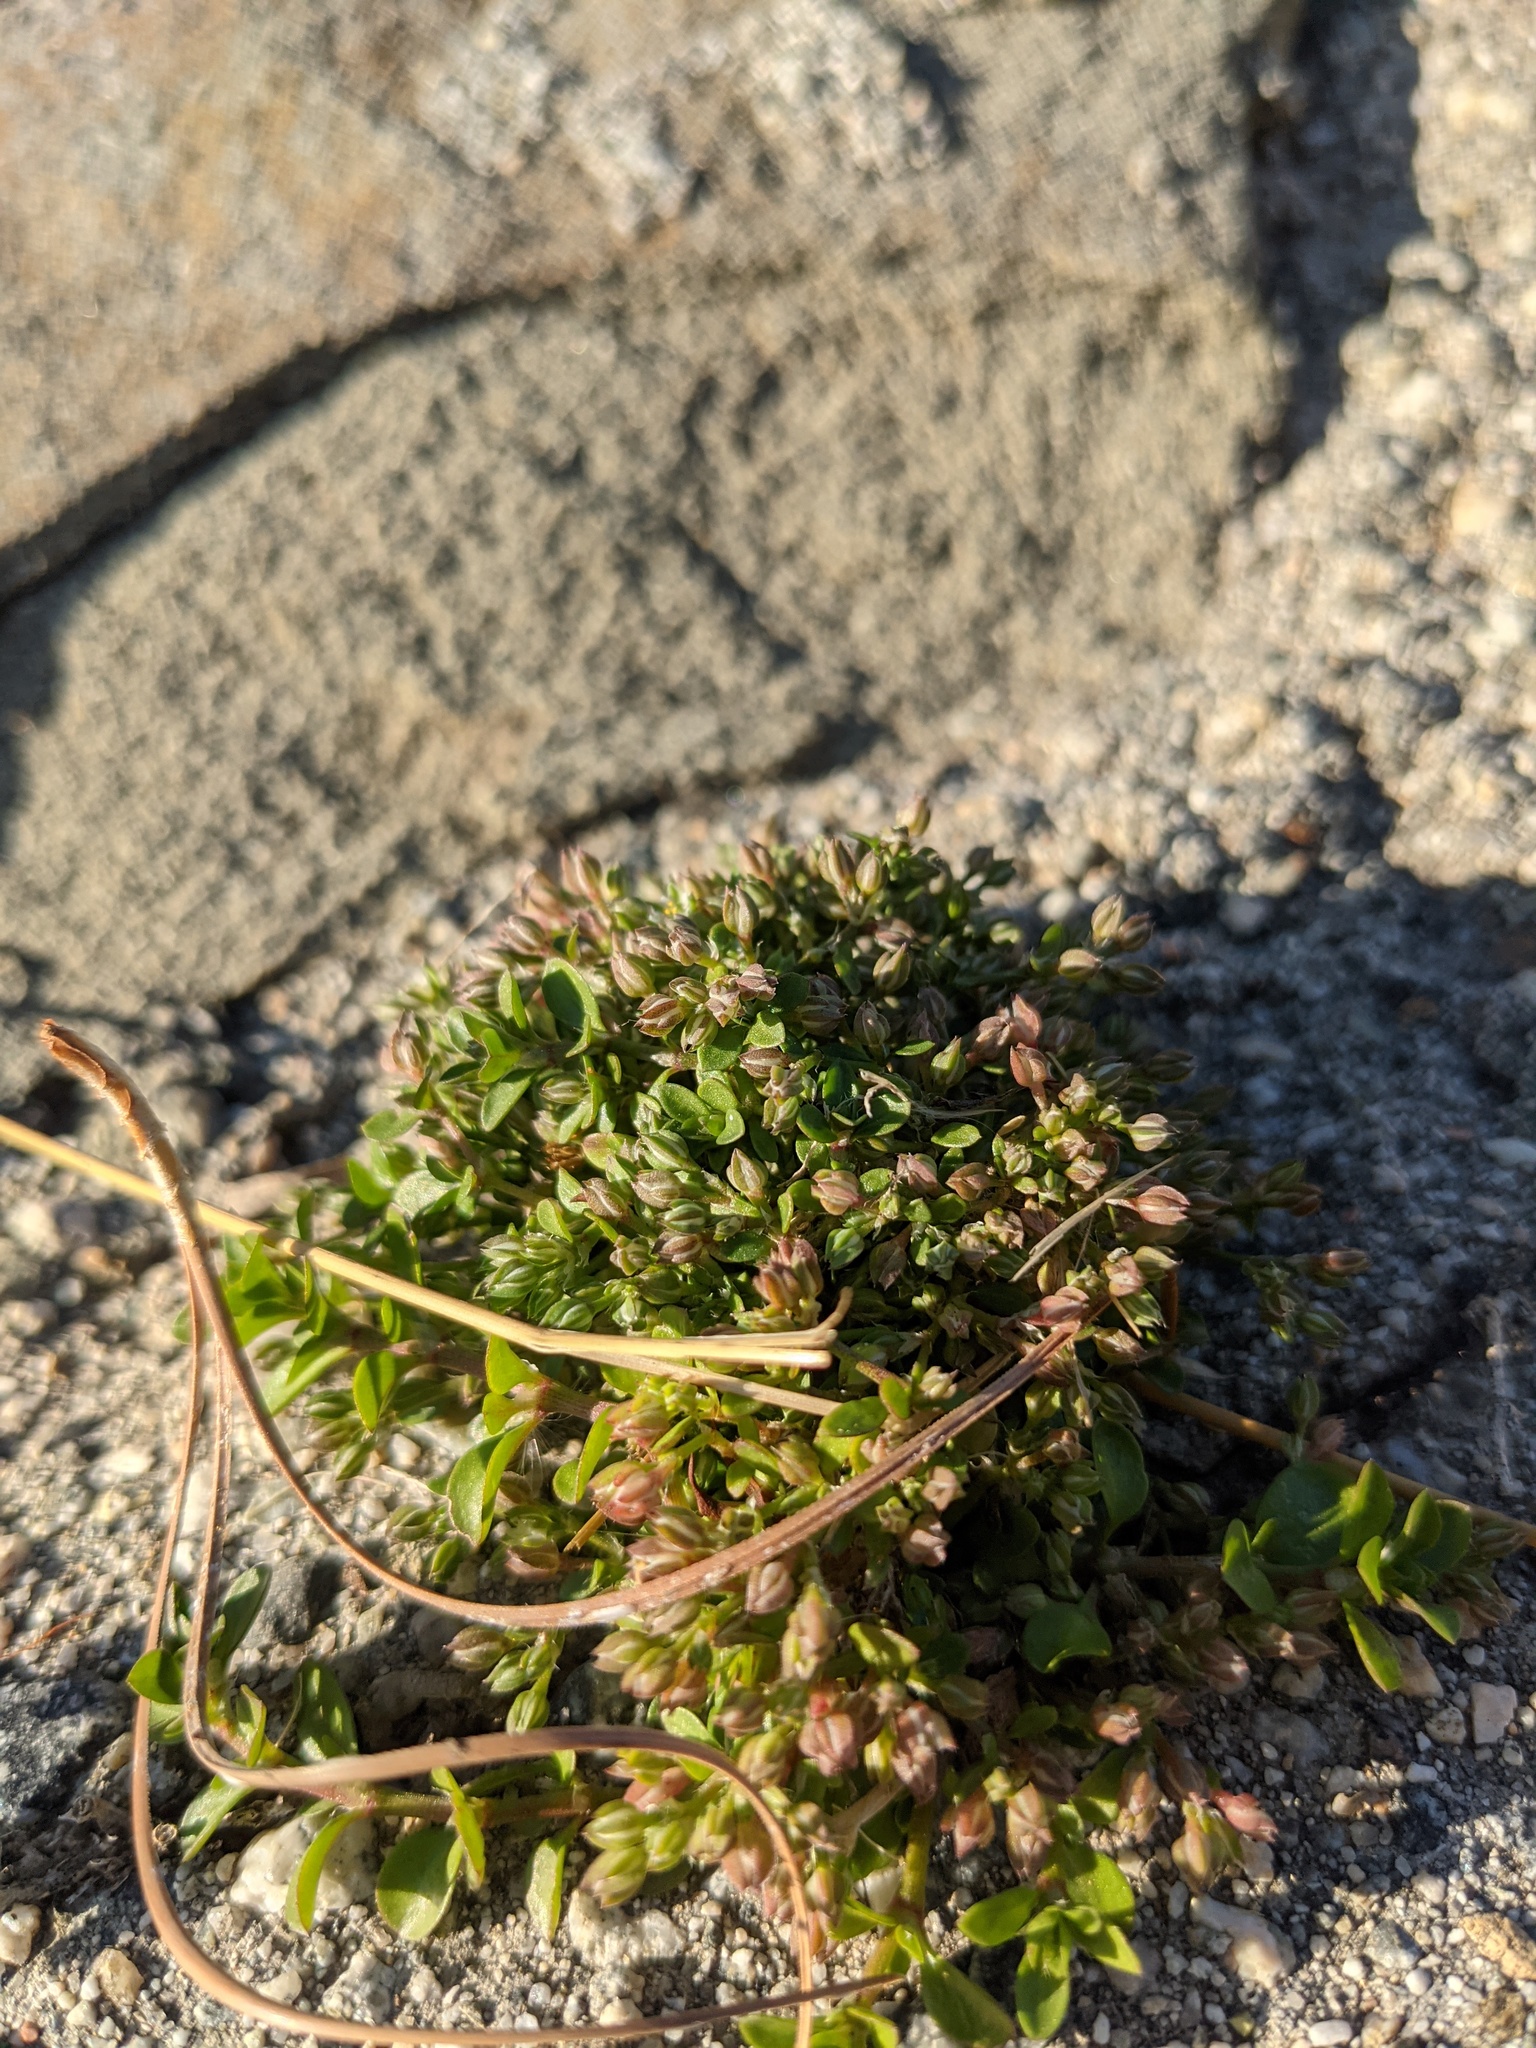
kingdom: Plantae
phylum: Tracheophyta
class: Magnoliopsida
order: Caryophyllales
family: Caryophyllaceae
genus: Polycarpon
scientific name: Polycarpon tetraphyllum
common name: Four-leaved all-seed
